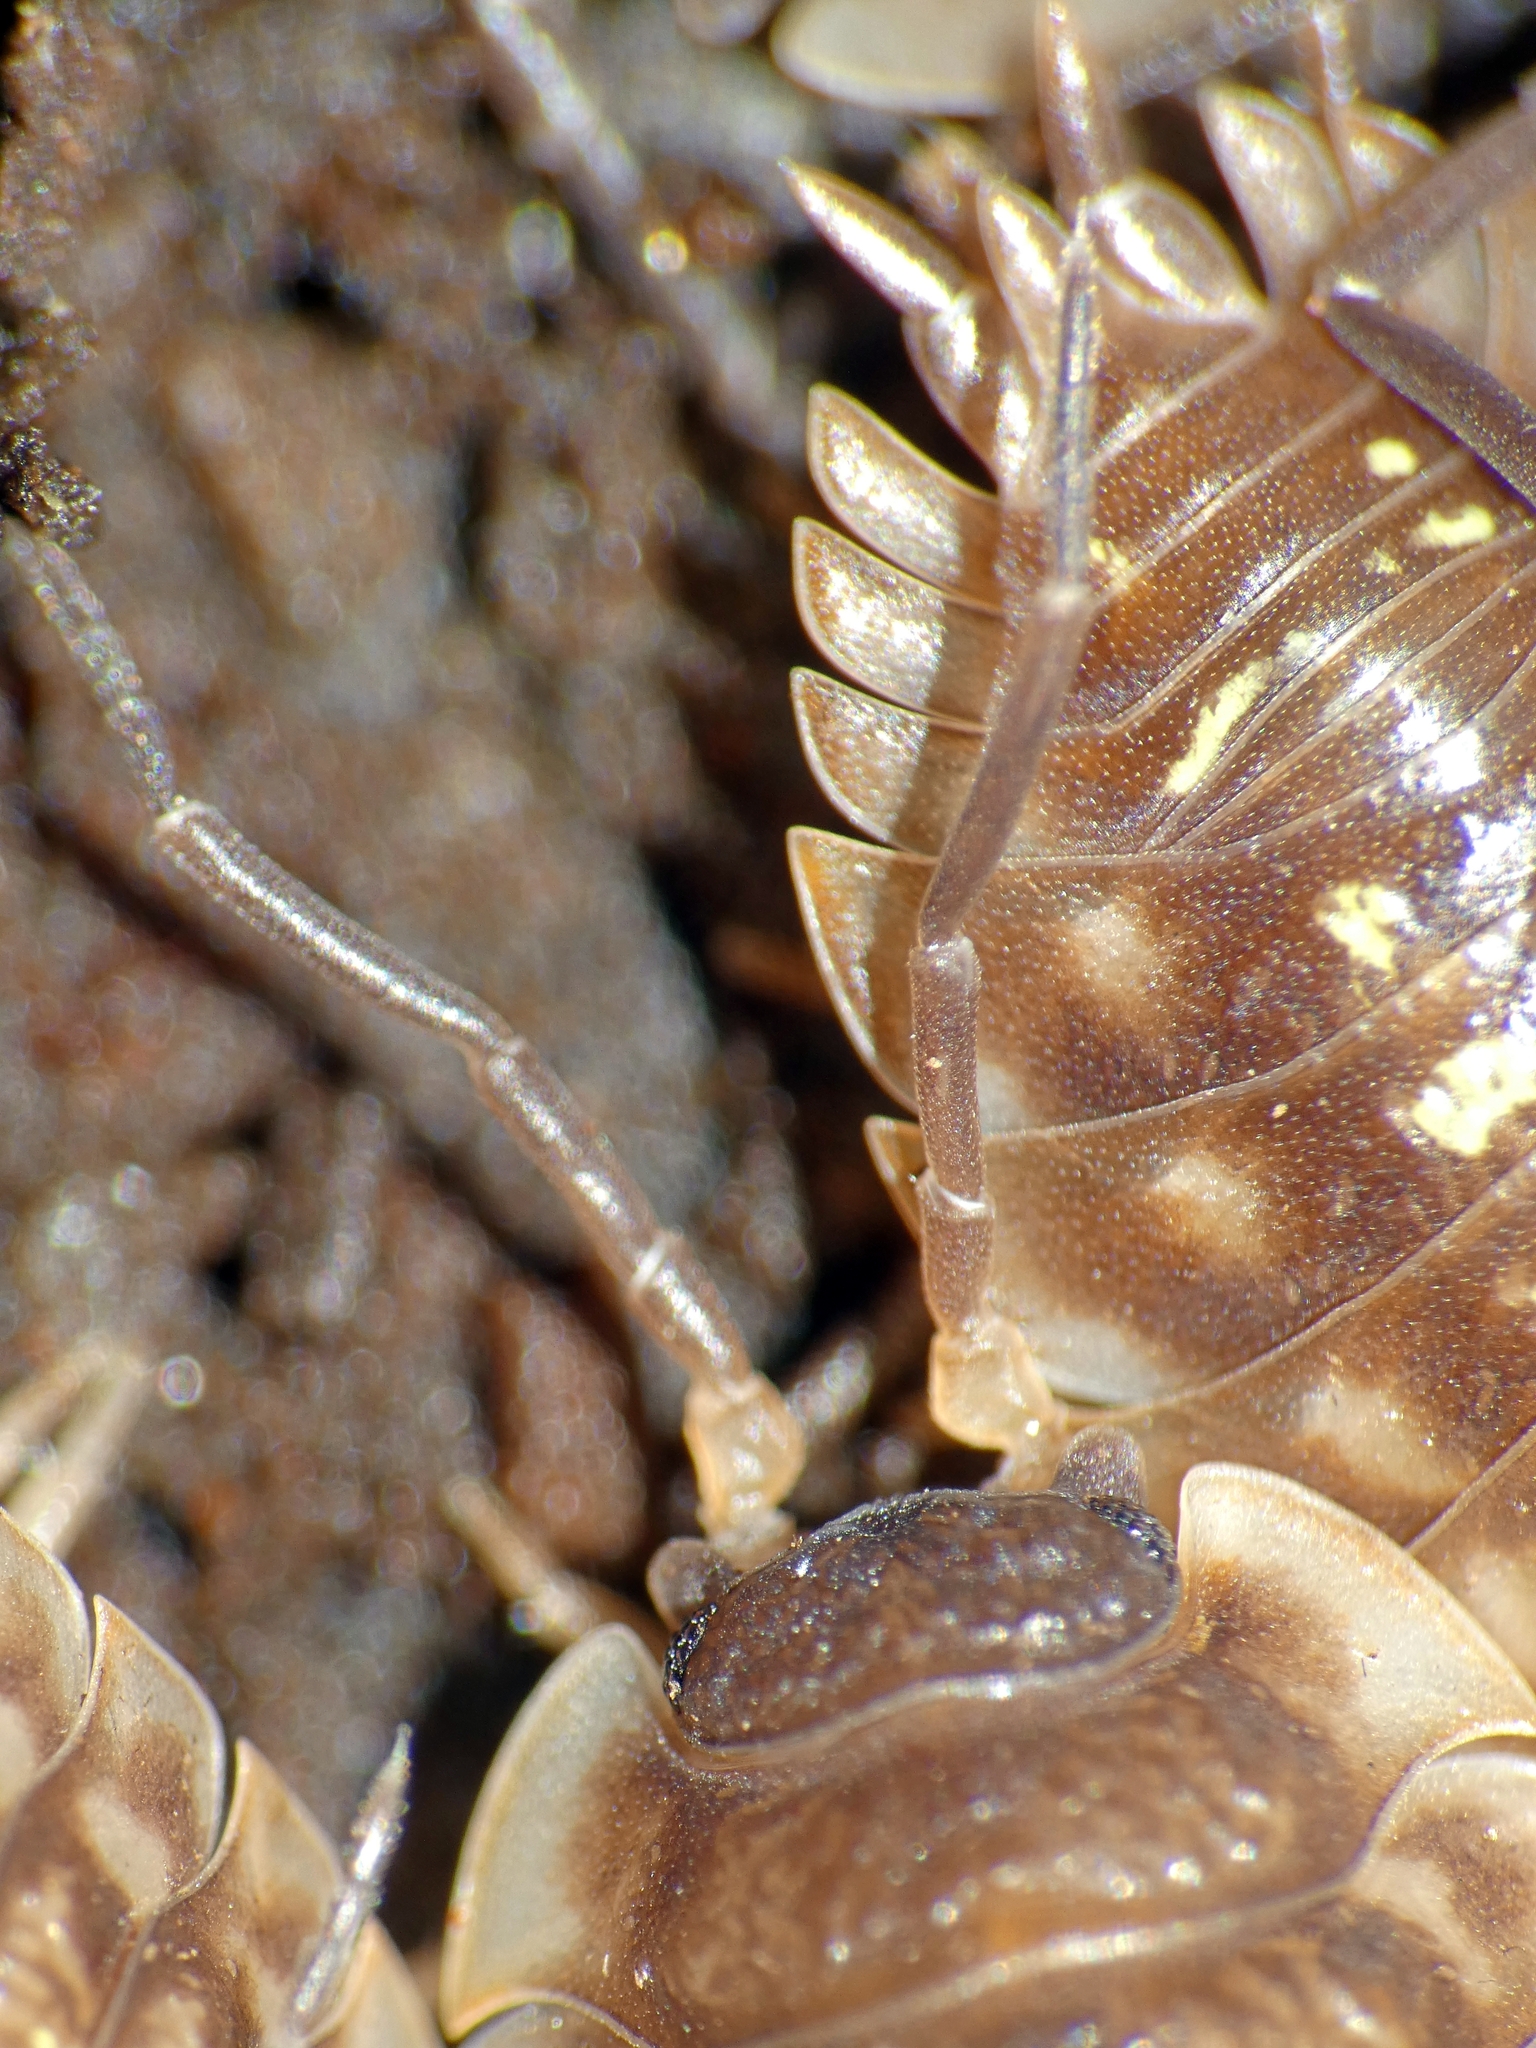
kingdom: Animalia
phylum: Arthropoda
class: Malacostraca
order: Isopoda
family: Oniscidae
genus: Oniscus
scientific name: Oniscus asellus
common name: Common shiny woodlouse
